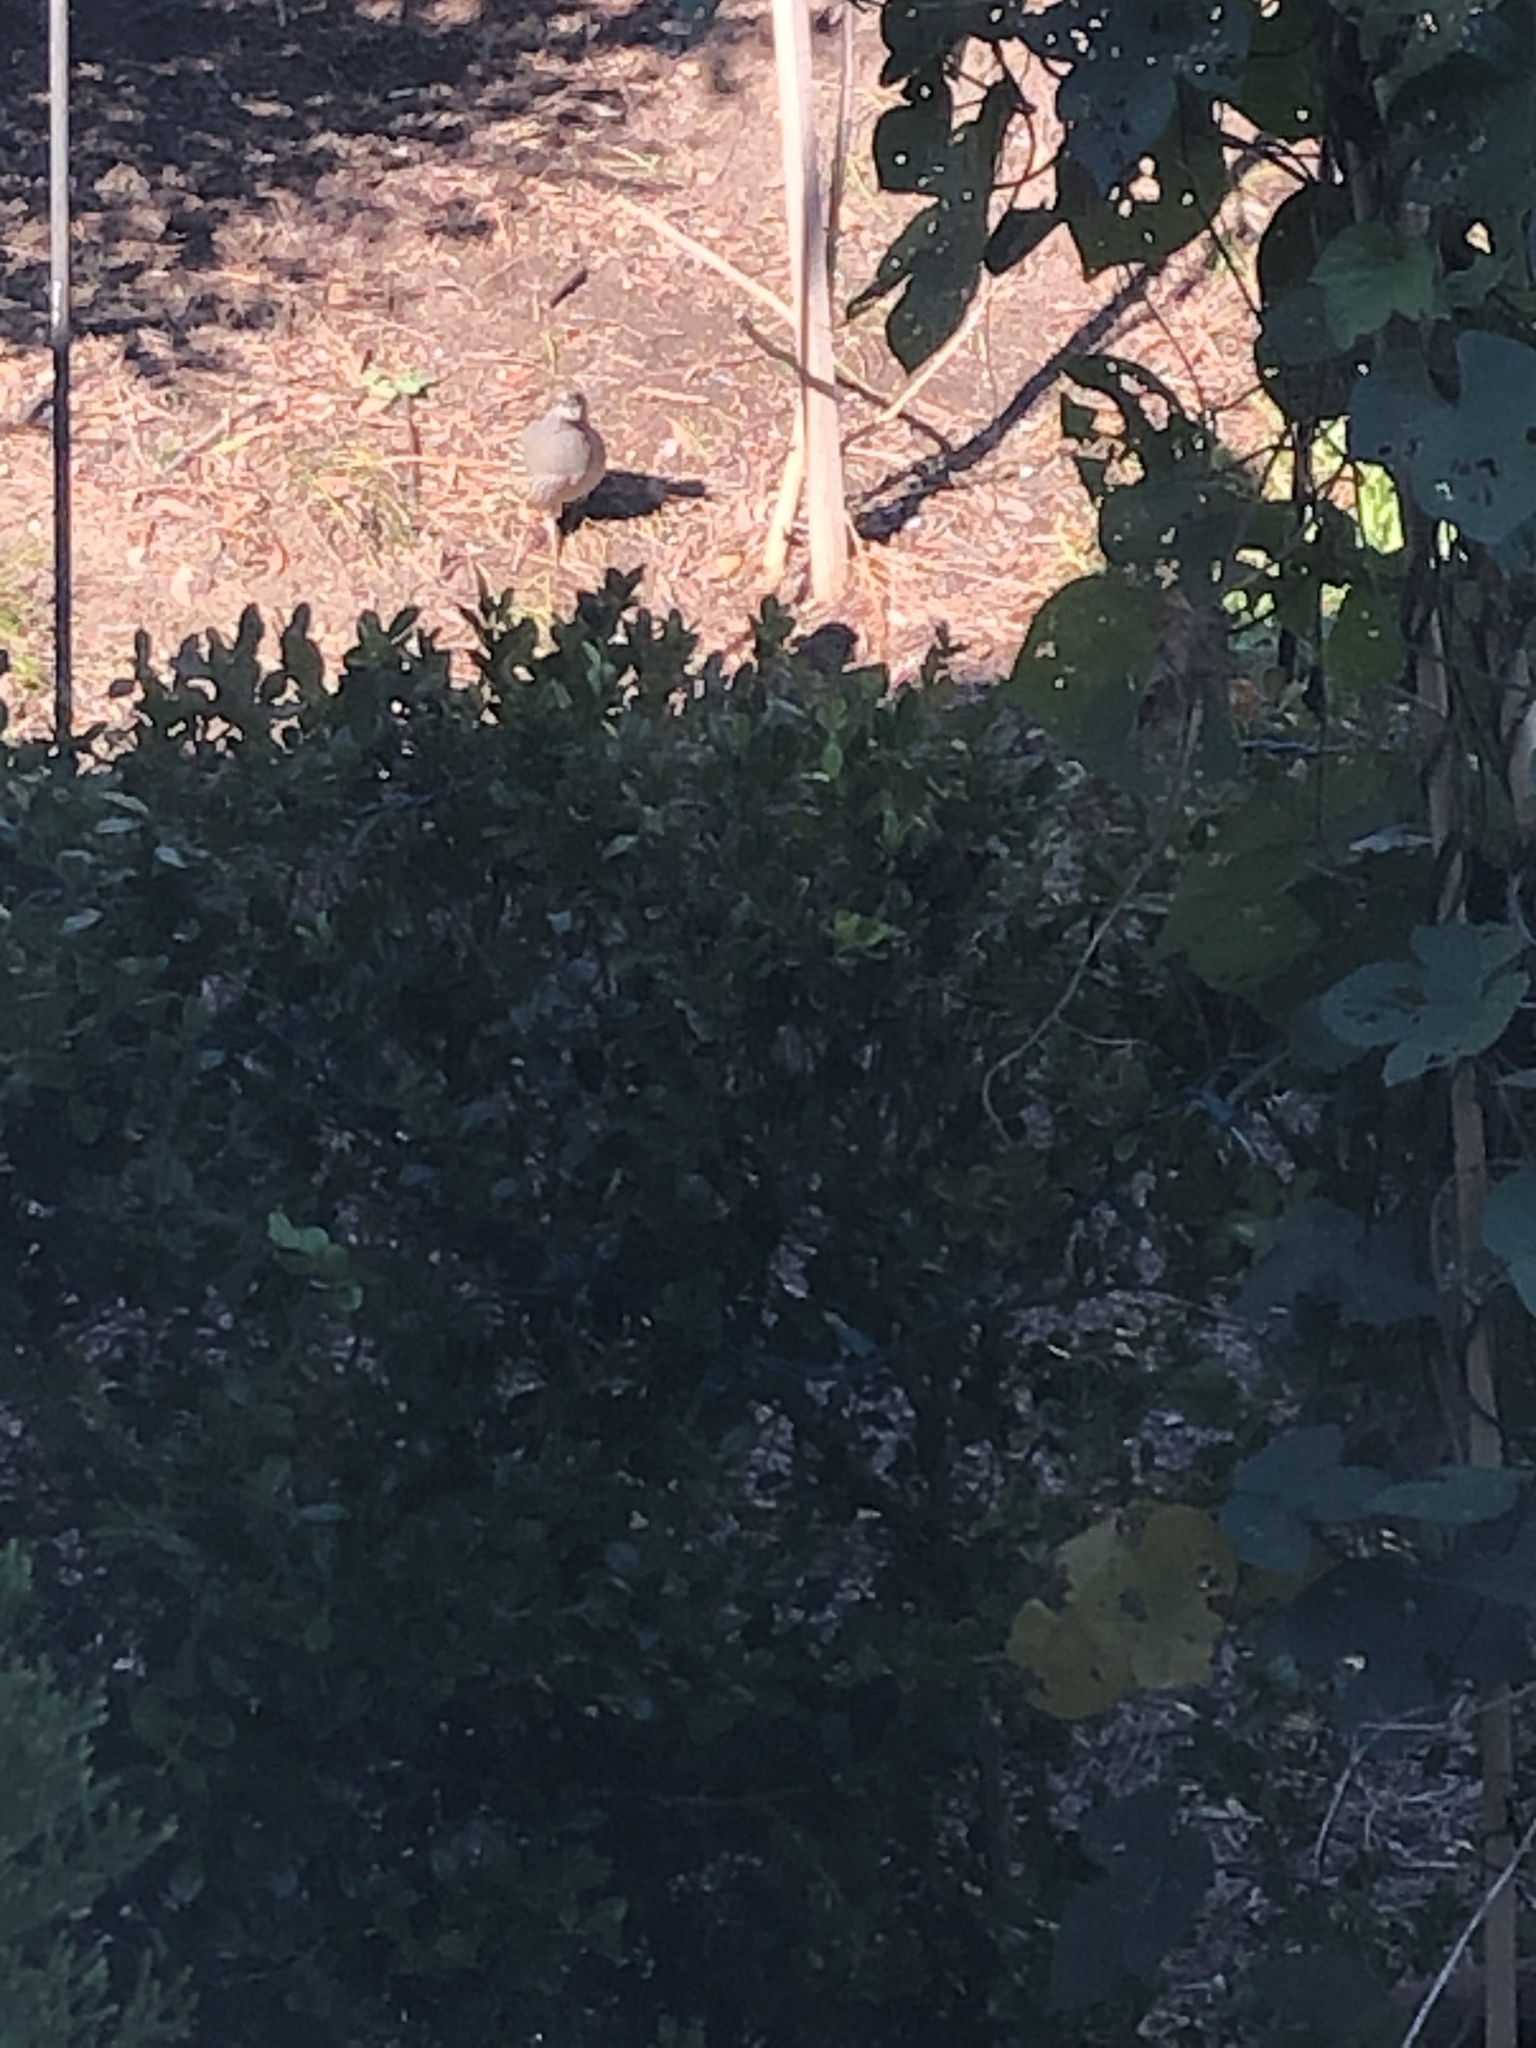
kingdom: Animalia
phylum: Chordata
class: Aves
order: Galliformes
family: Odontophoridae
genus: Callipepla
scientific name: Callipepla californica
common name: California quail
